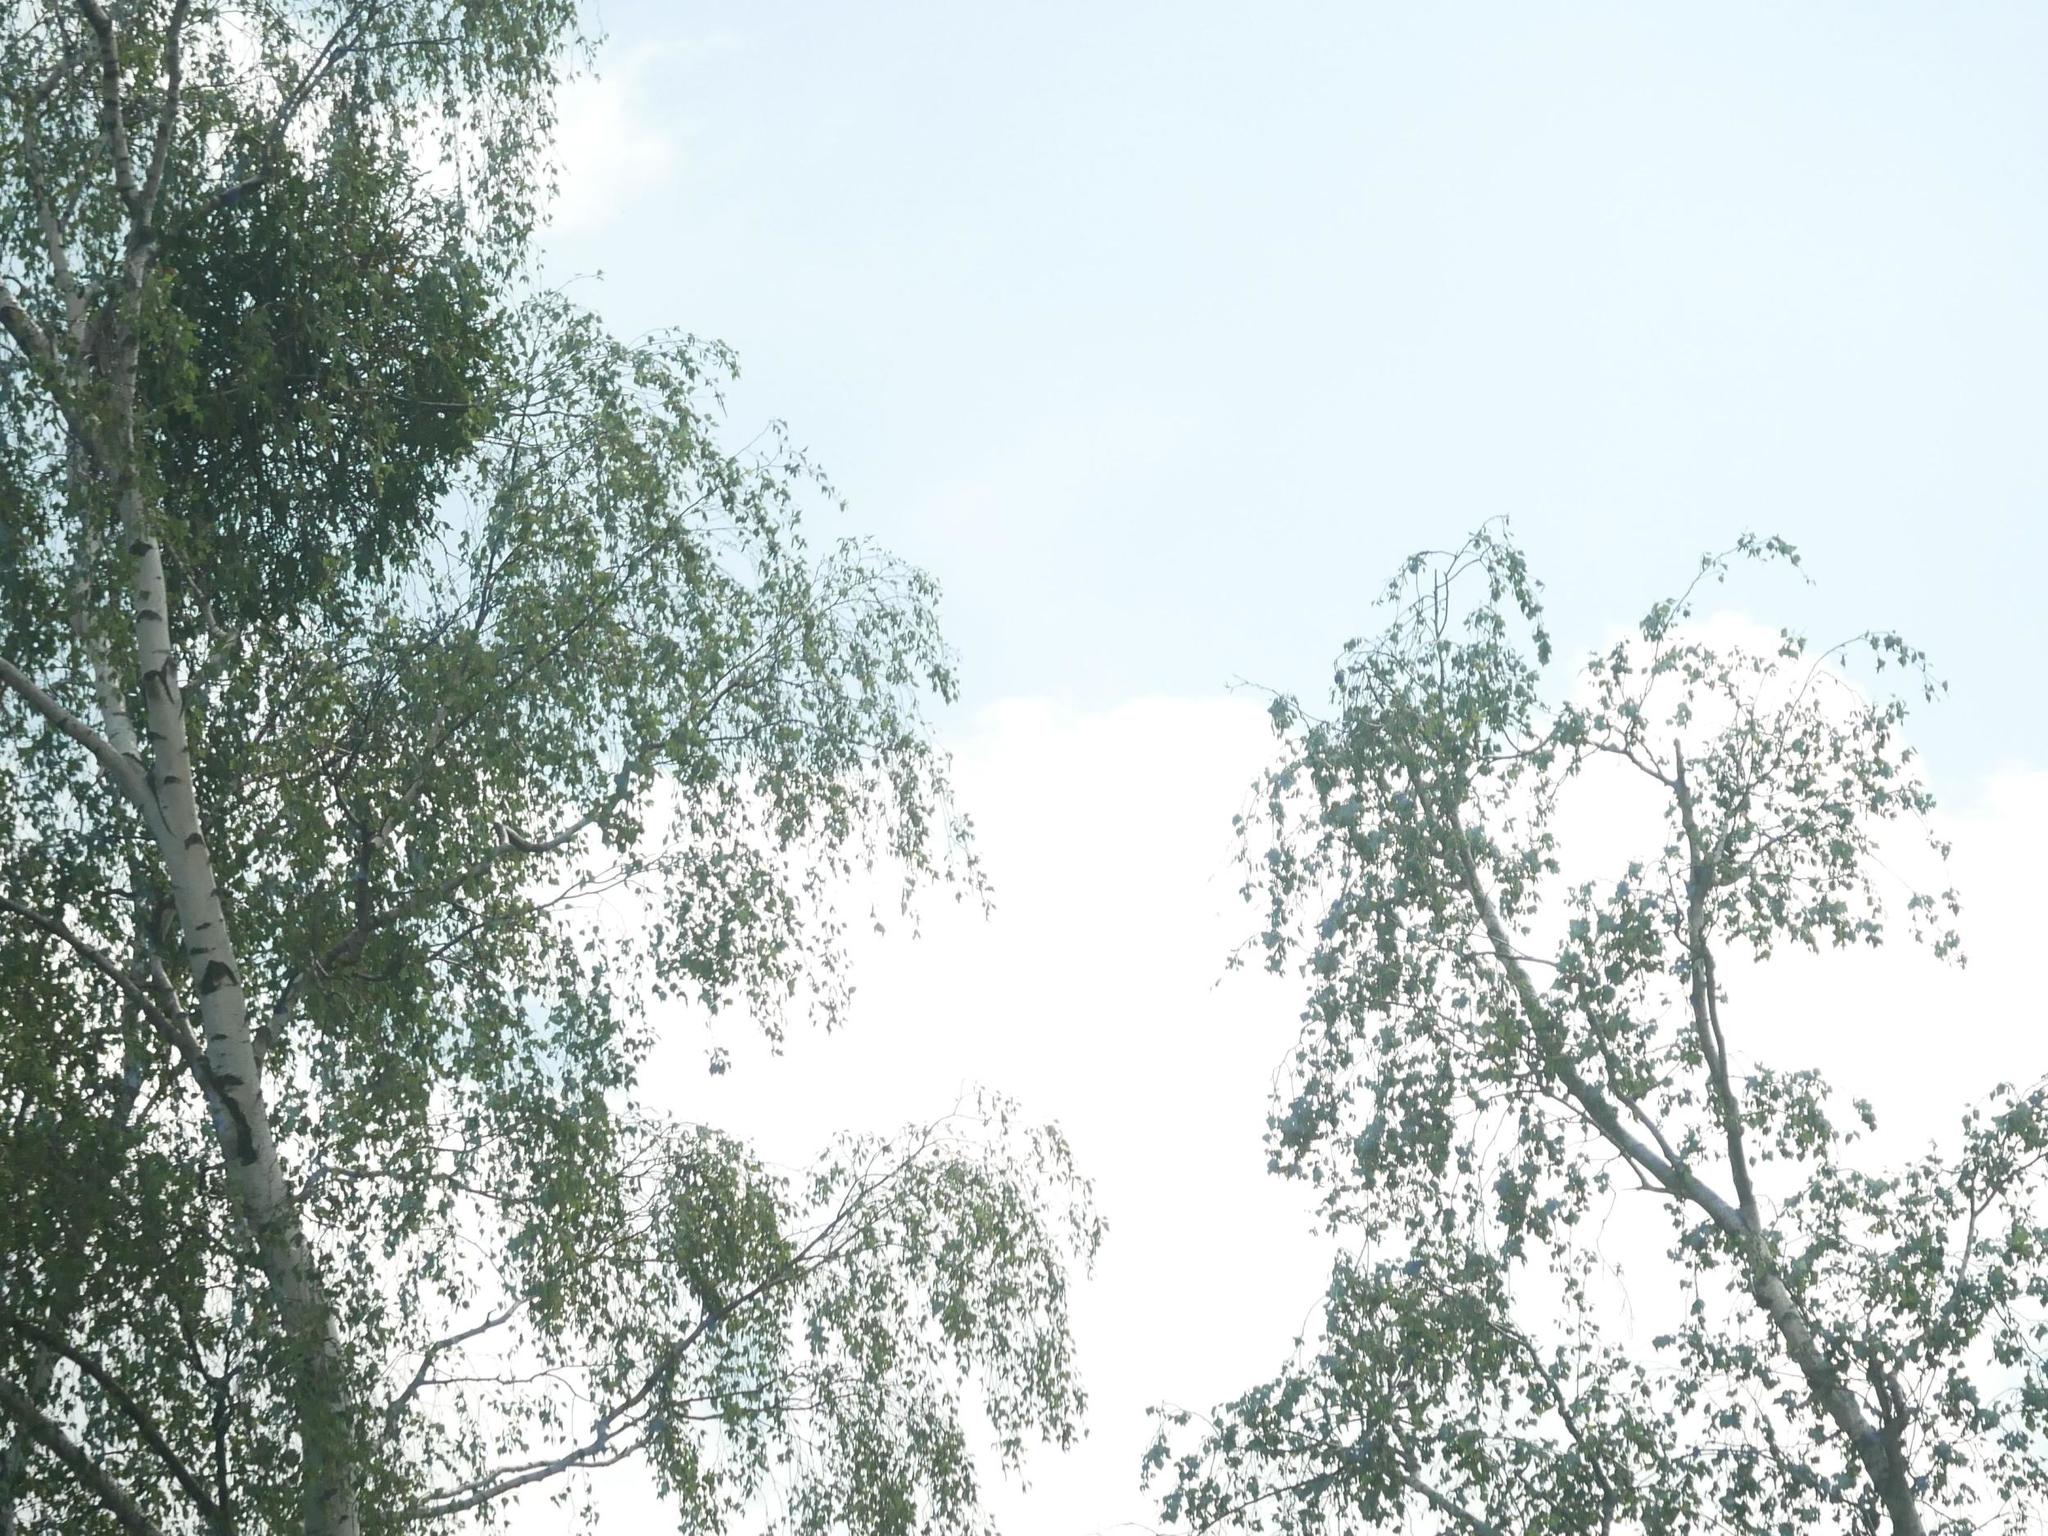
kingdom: Plantae
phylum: Tracheophyta
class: Magnoliopsida
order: Santalales
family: Viscaceae
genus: Viscum
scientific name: Viscum album
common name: Mistletoe
